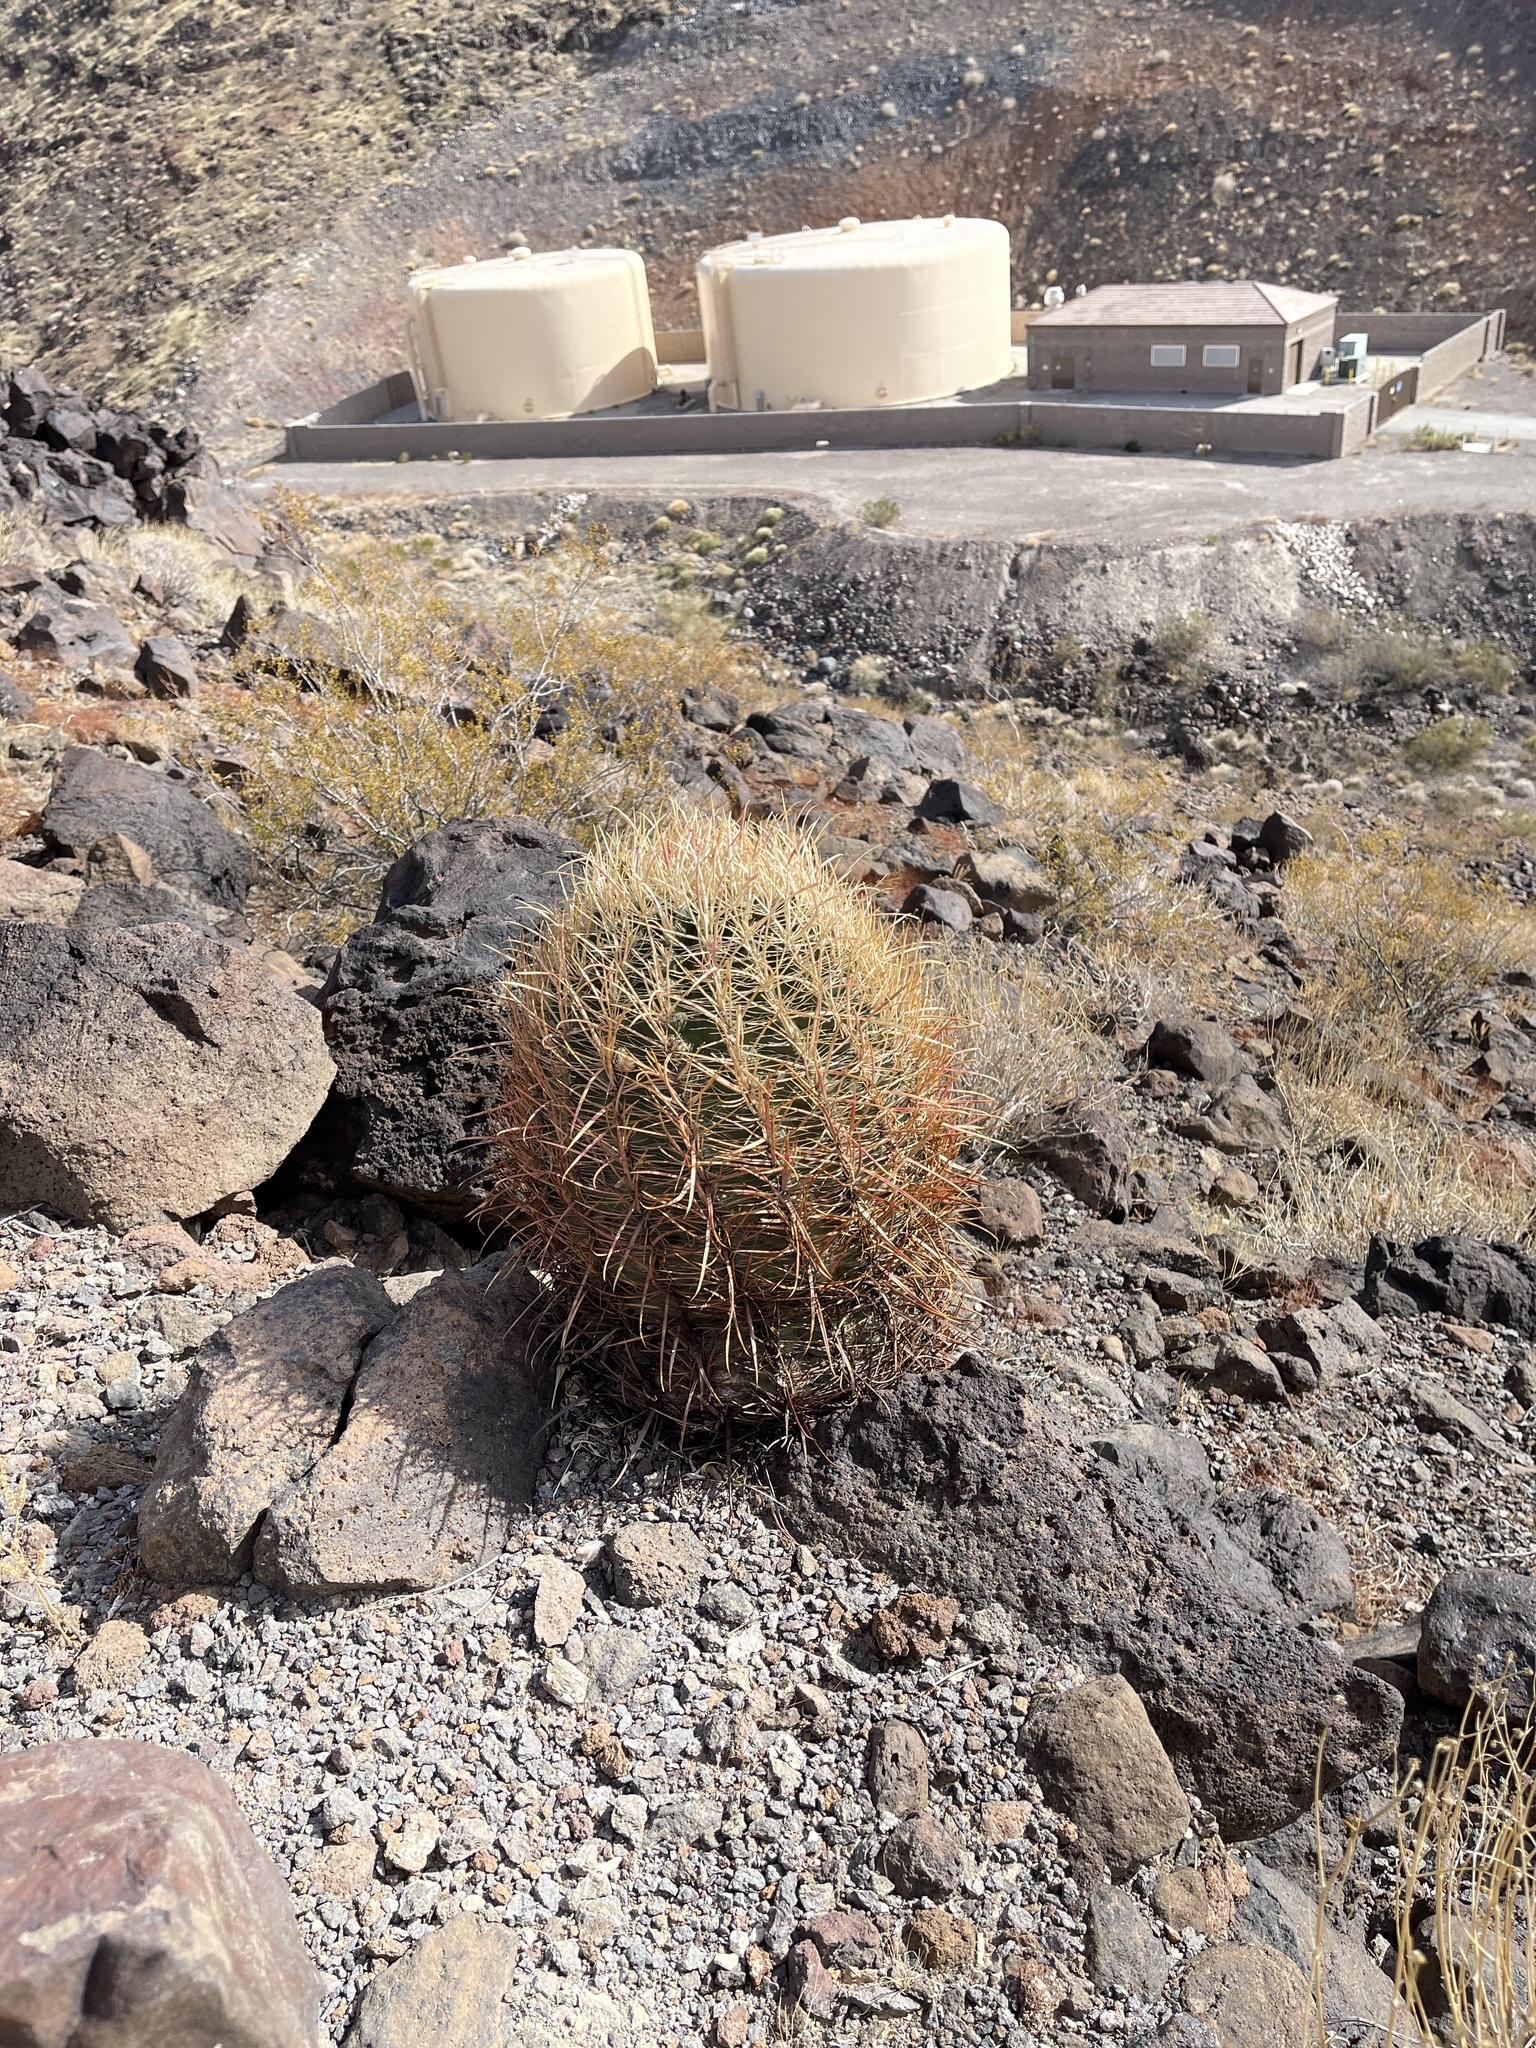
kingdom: Plantae
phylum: Tracheophyta
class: Magnoliopsida
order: Caryophyllales
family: Cactaceae
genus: Ferocactus
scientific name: Ferocactus cylindraceus
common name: California barrel cactus
